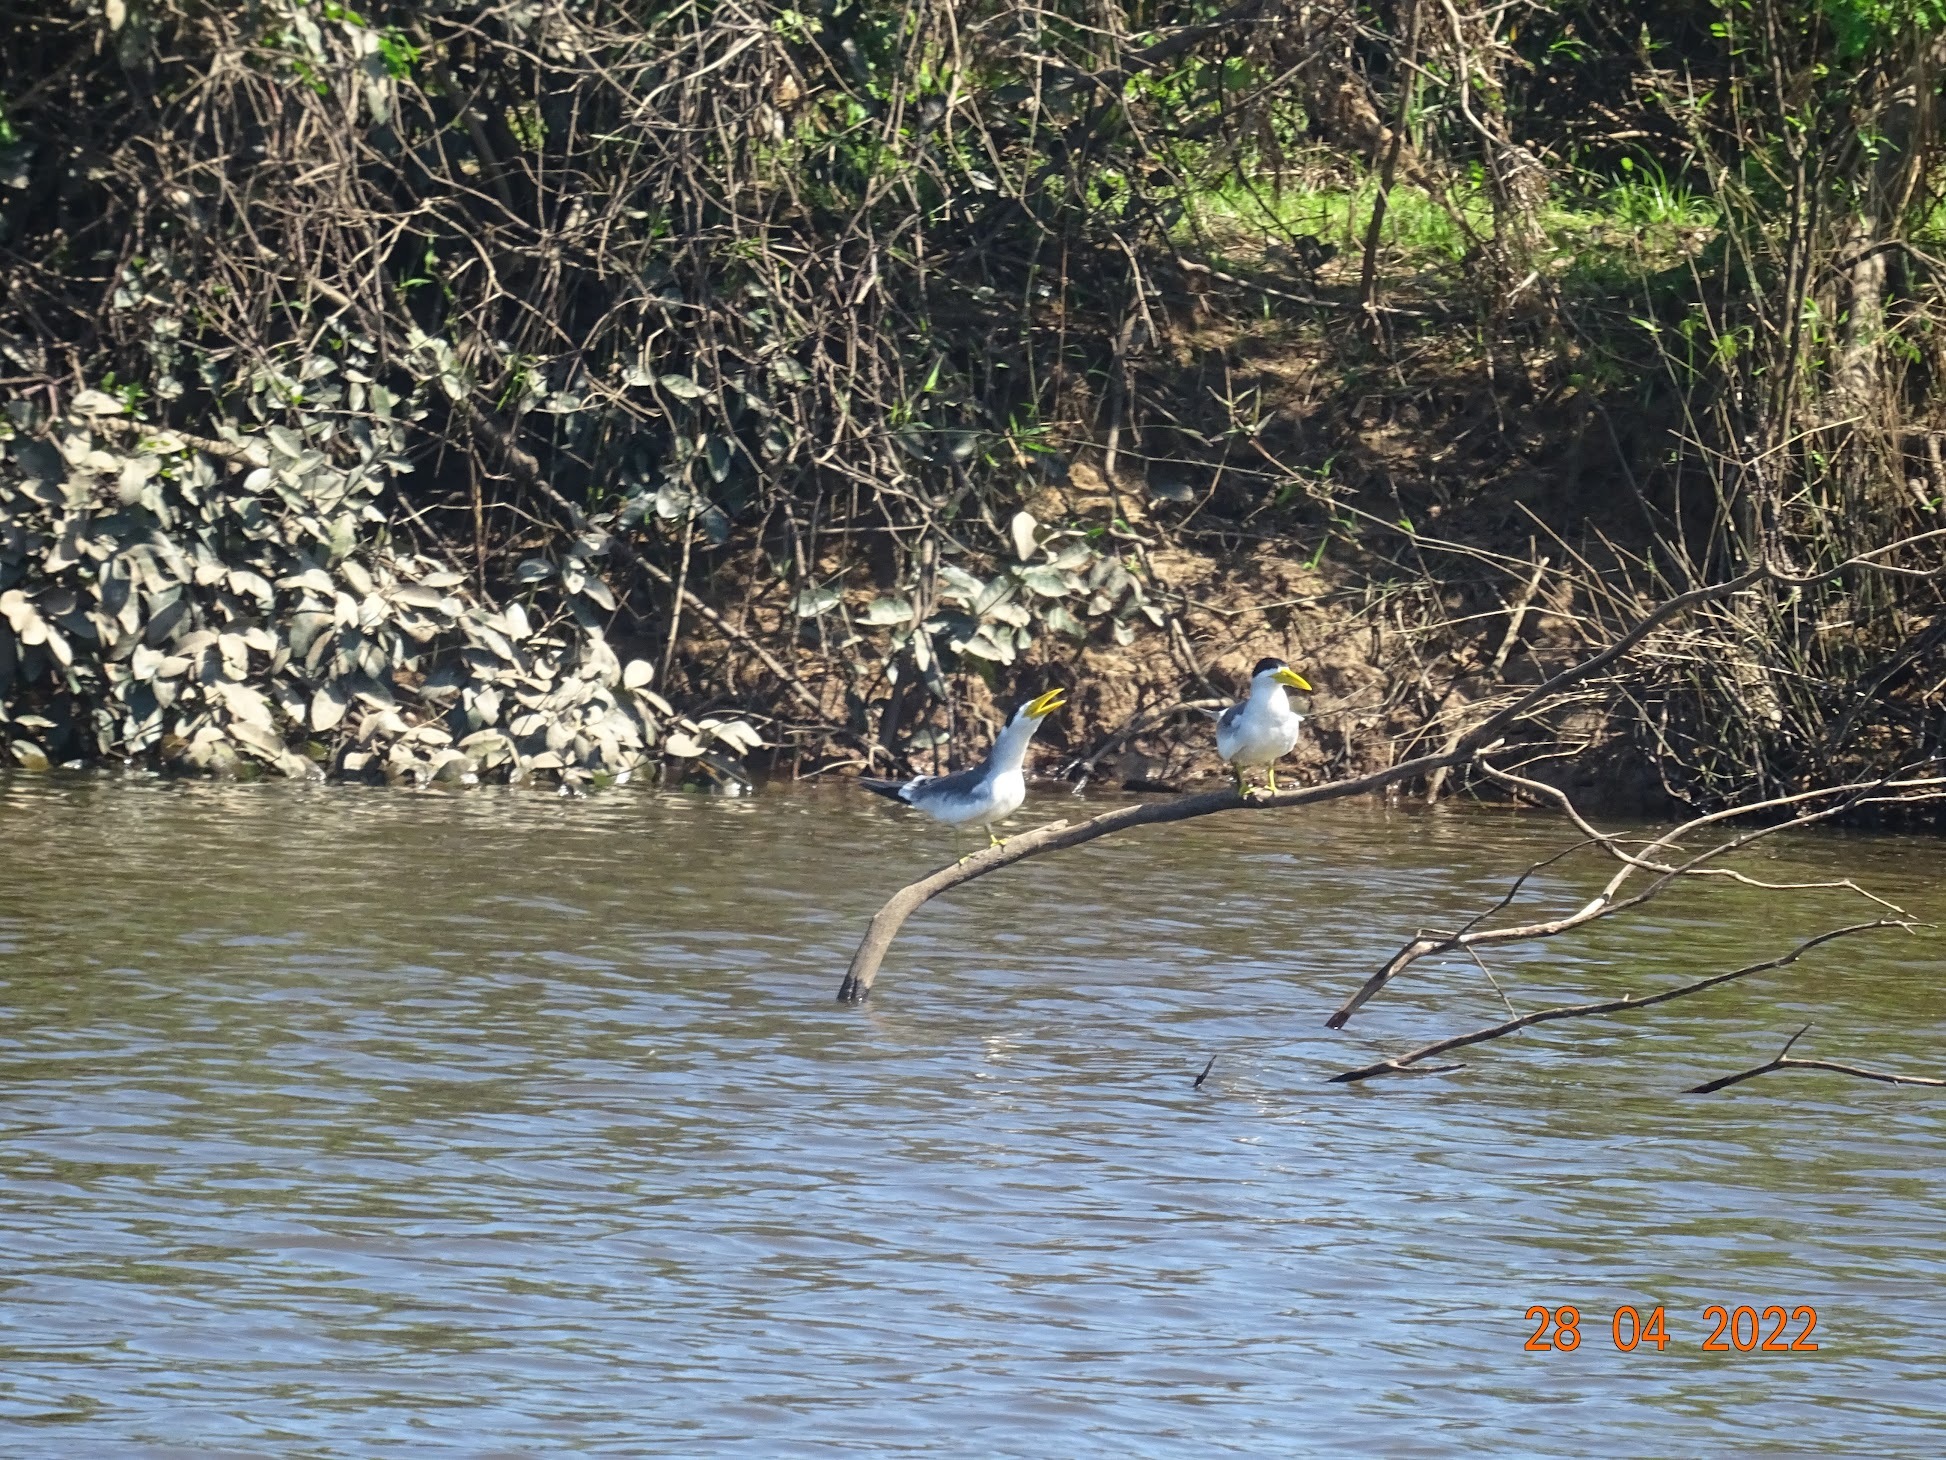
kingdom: Animalia
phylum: Chordata
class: Aves
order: Charadriiformes
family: Laridae
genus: Phaetusa
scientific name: Phaetusa simplex
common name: Large-billed tern
